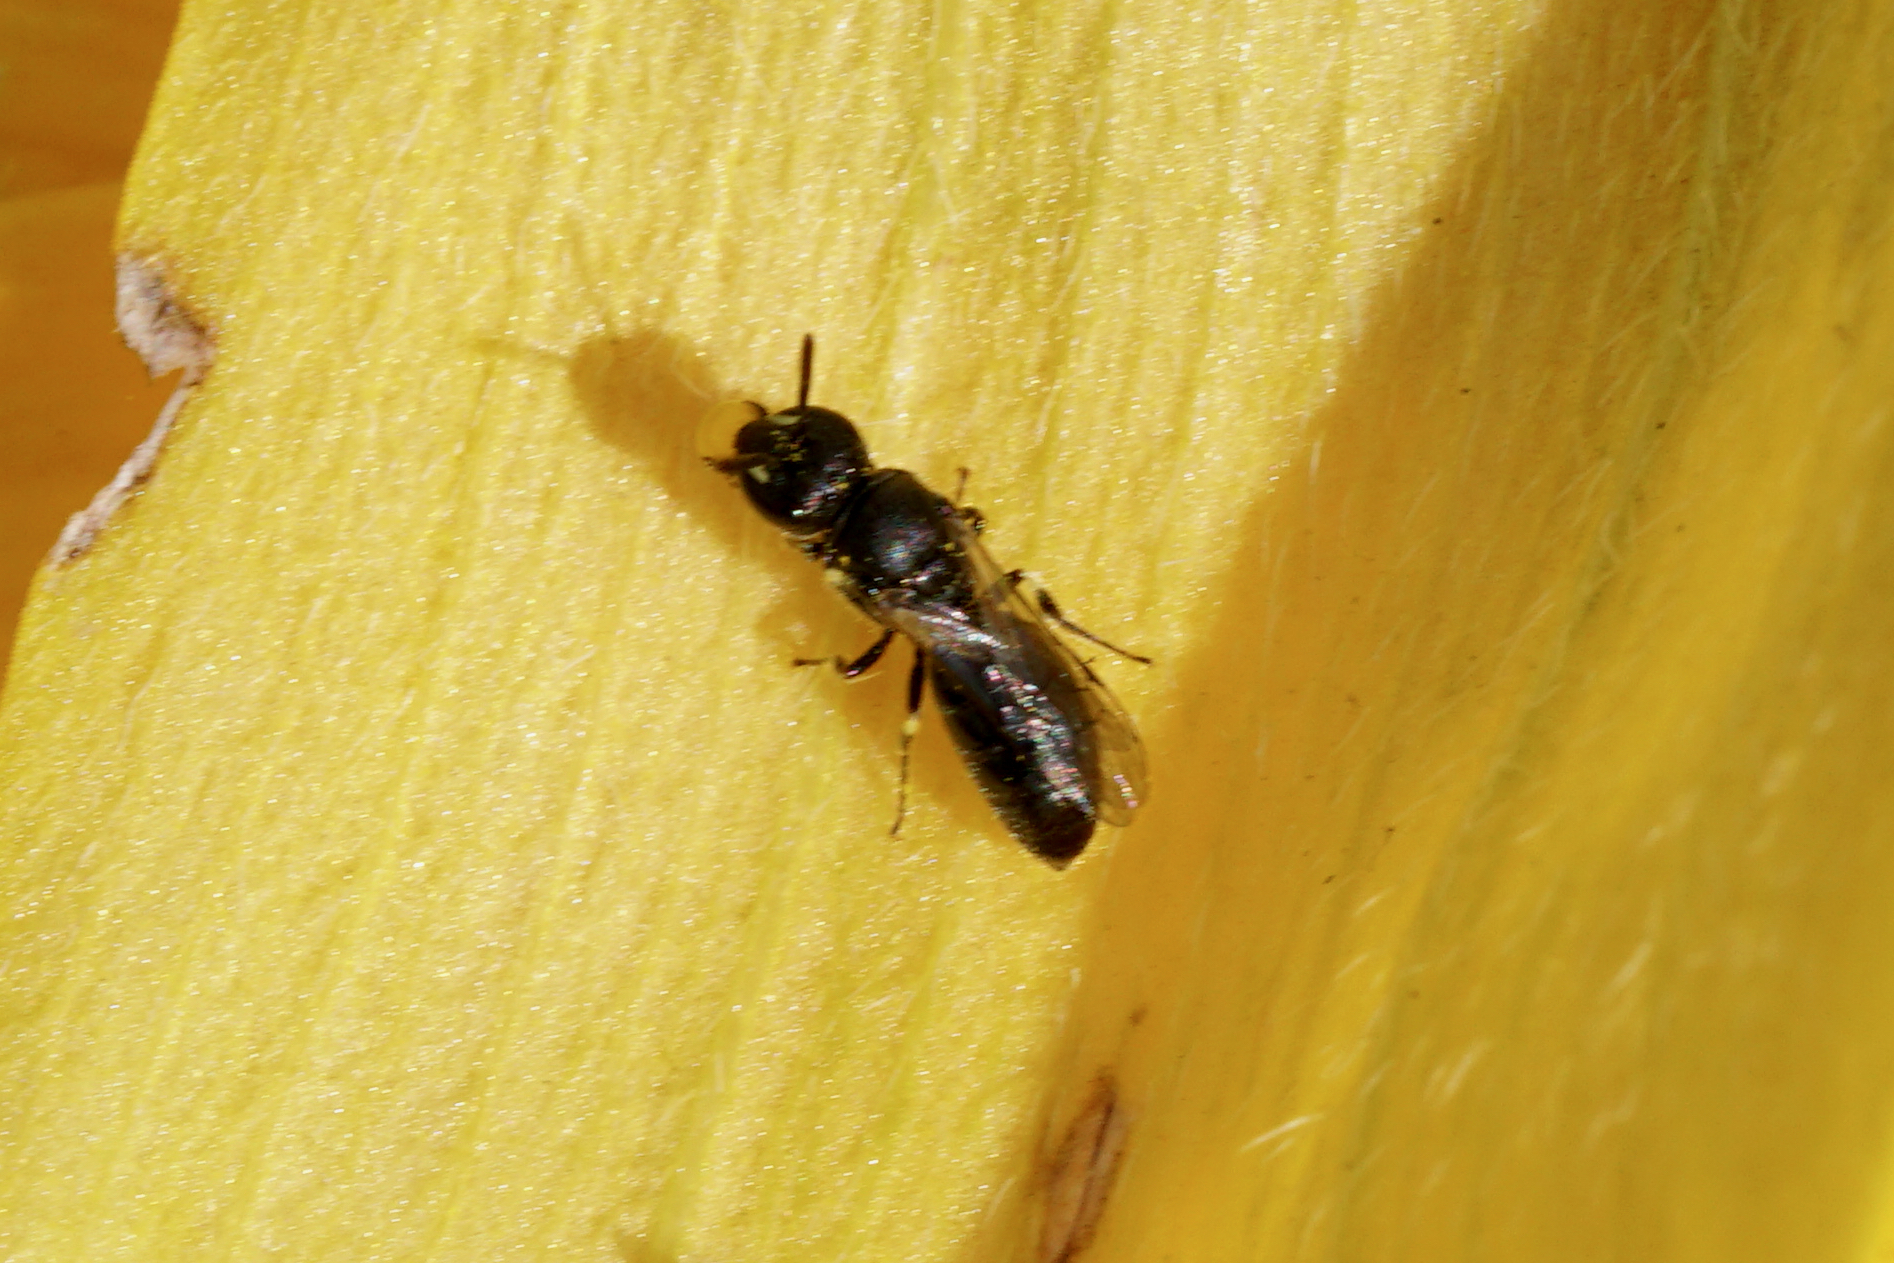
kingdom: Animalia
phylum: Arthropoda
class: Insecta
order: Hymenoptera
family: Colletidae
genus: Hylaeus
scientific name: Hylaeus mesillae
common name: Mesilla masked bee
